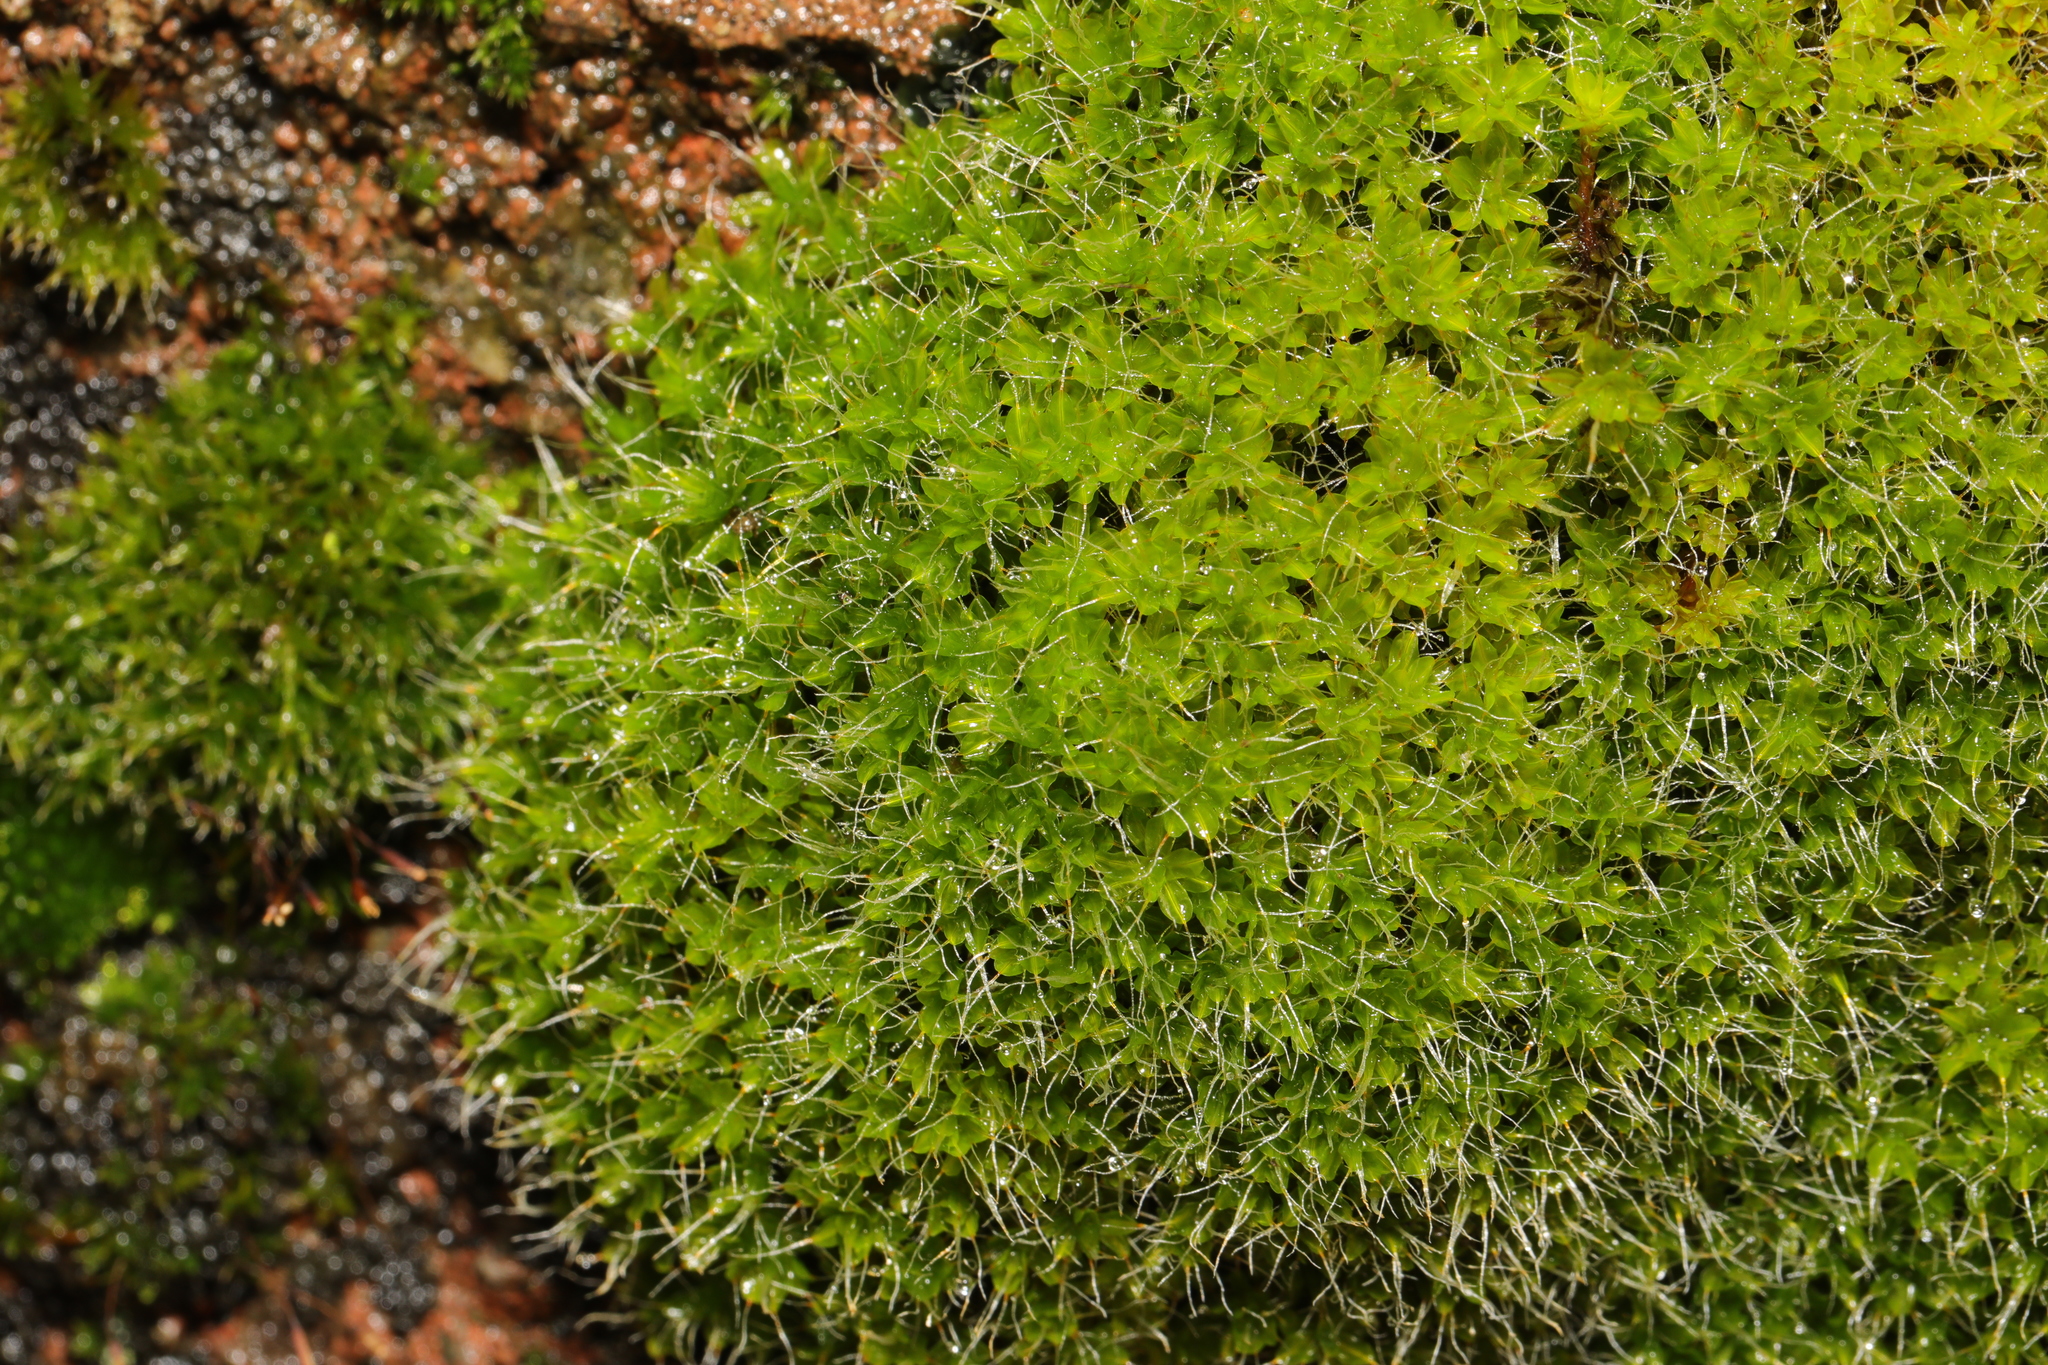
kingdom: Plantae
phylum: Bryophyta
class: Bryopsida
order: Pottiales
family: Pottiaceae
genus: Syntrichia
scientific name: Syntrichia montana
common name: Intermediate screw-moss
